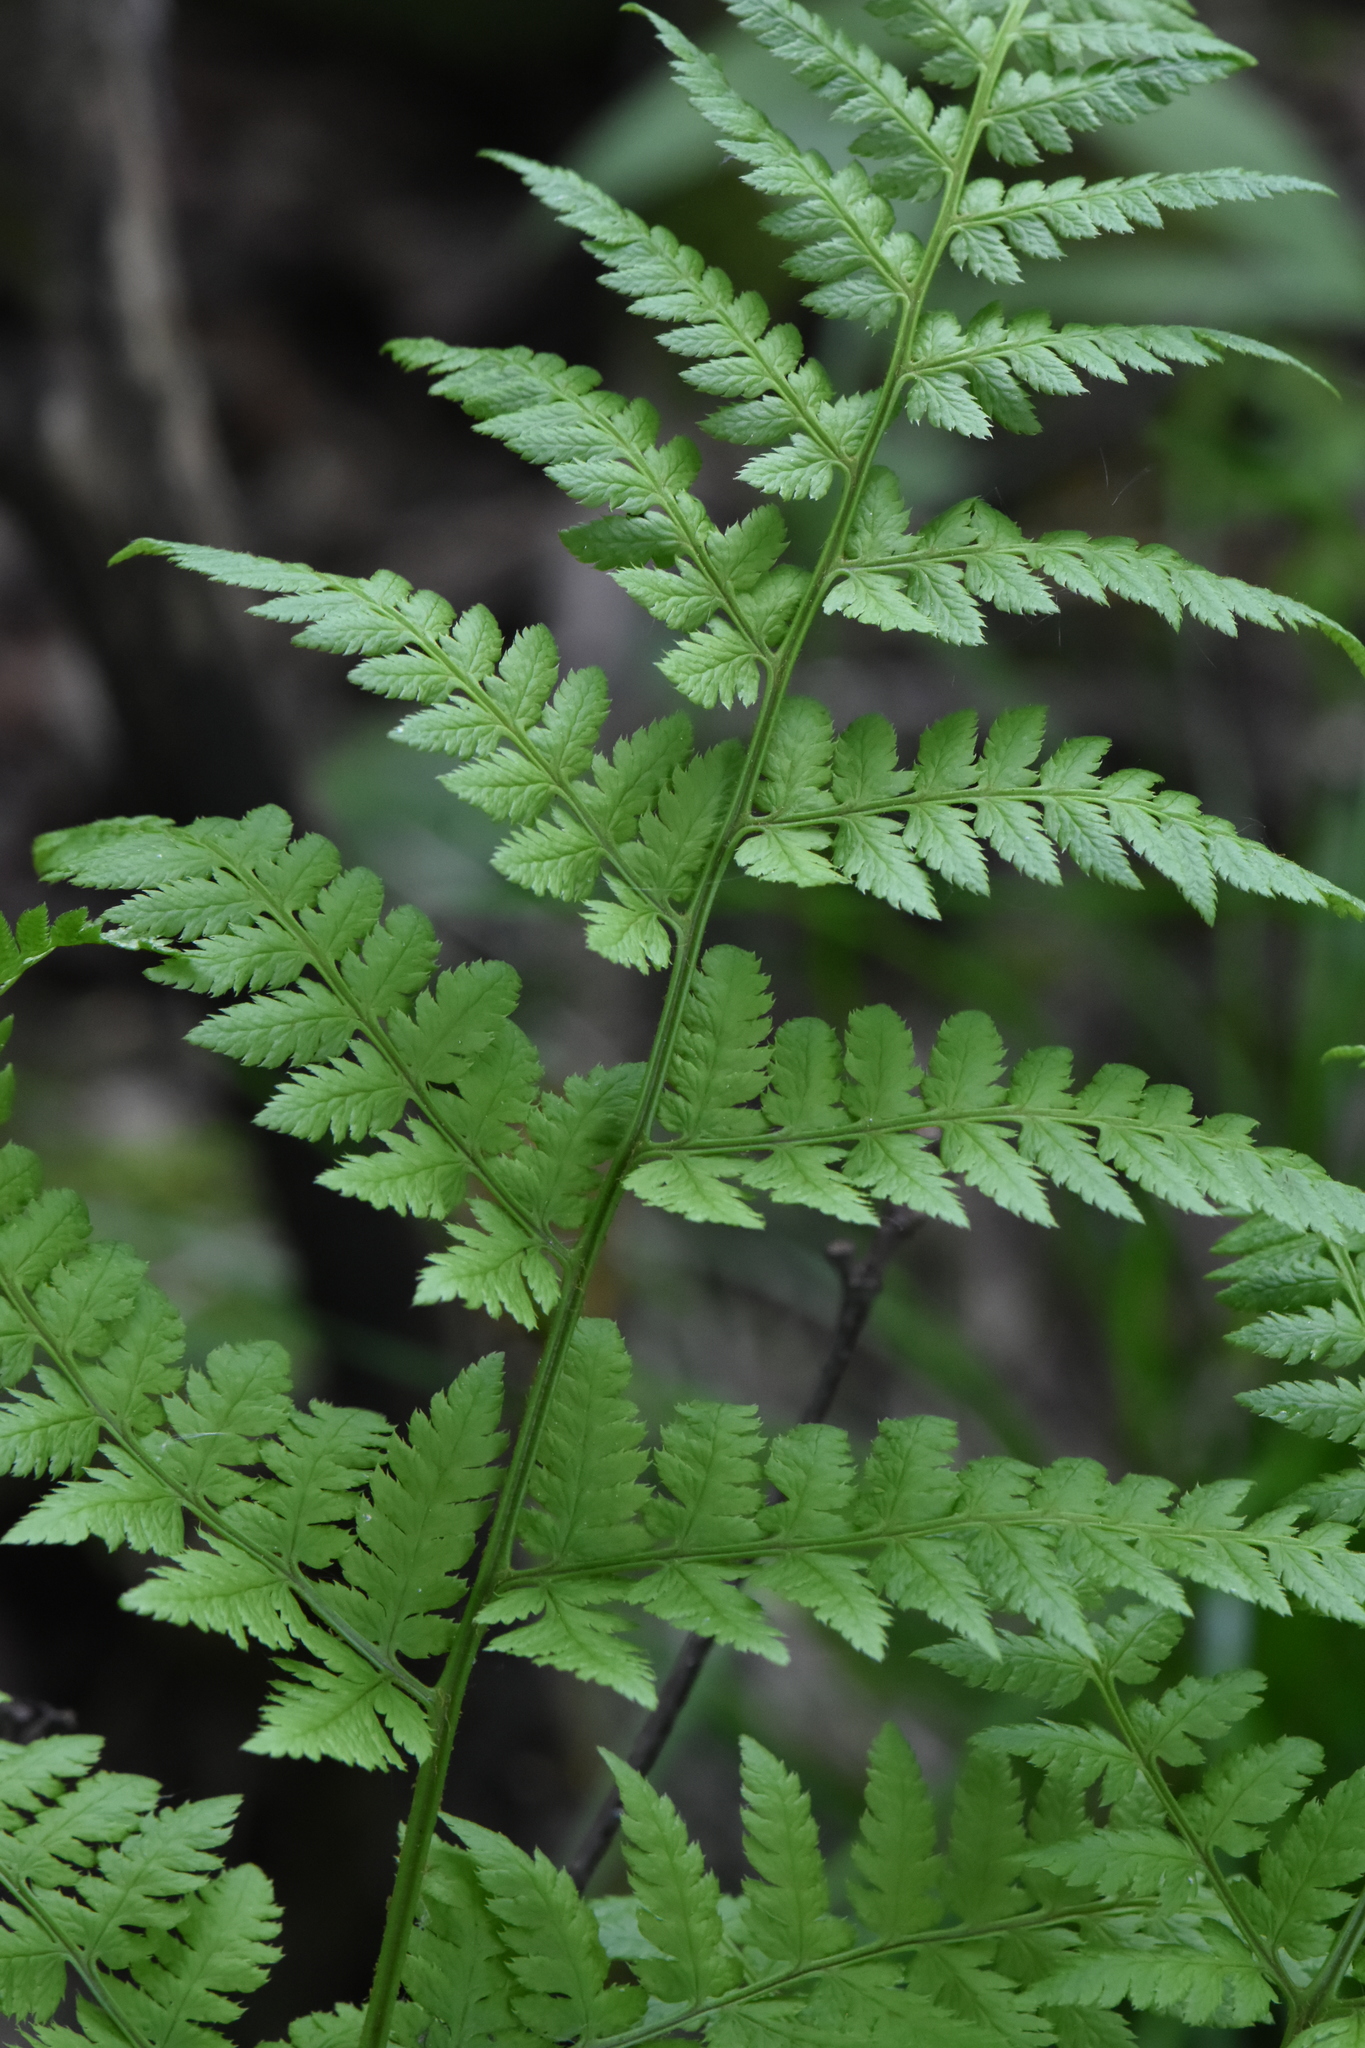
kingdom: Plantae
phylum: Tracheophyta
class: Polypodiopsida
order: Polypodiales
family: Dryopteridaceae
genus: Dryopteris
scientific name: Dryopteris carthusiana
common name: Narrow buckler-fern
